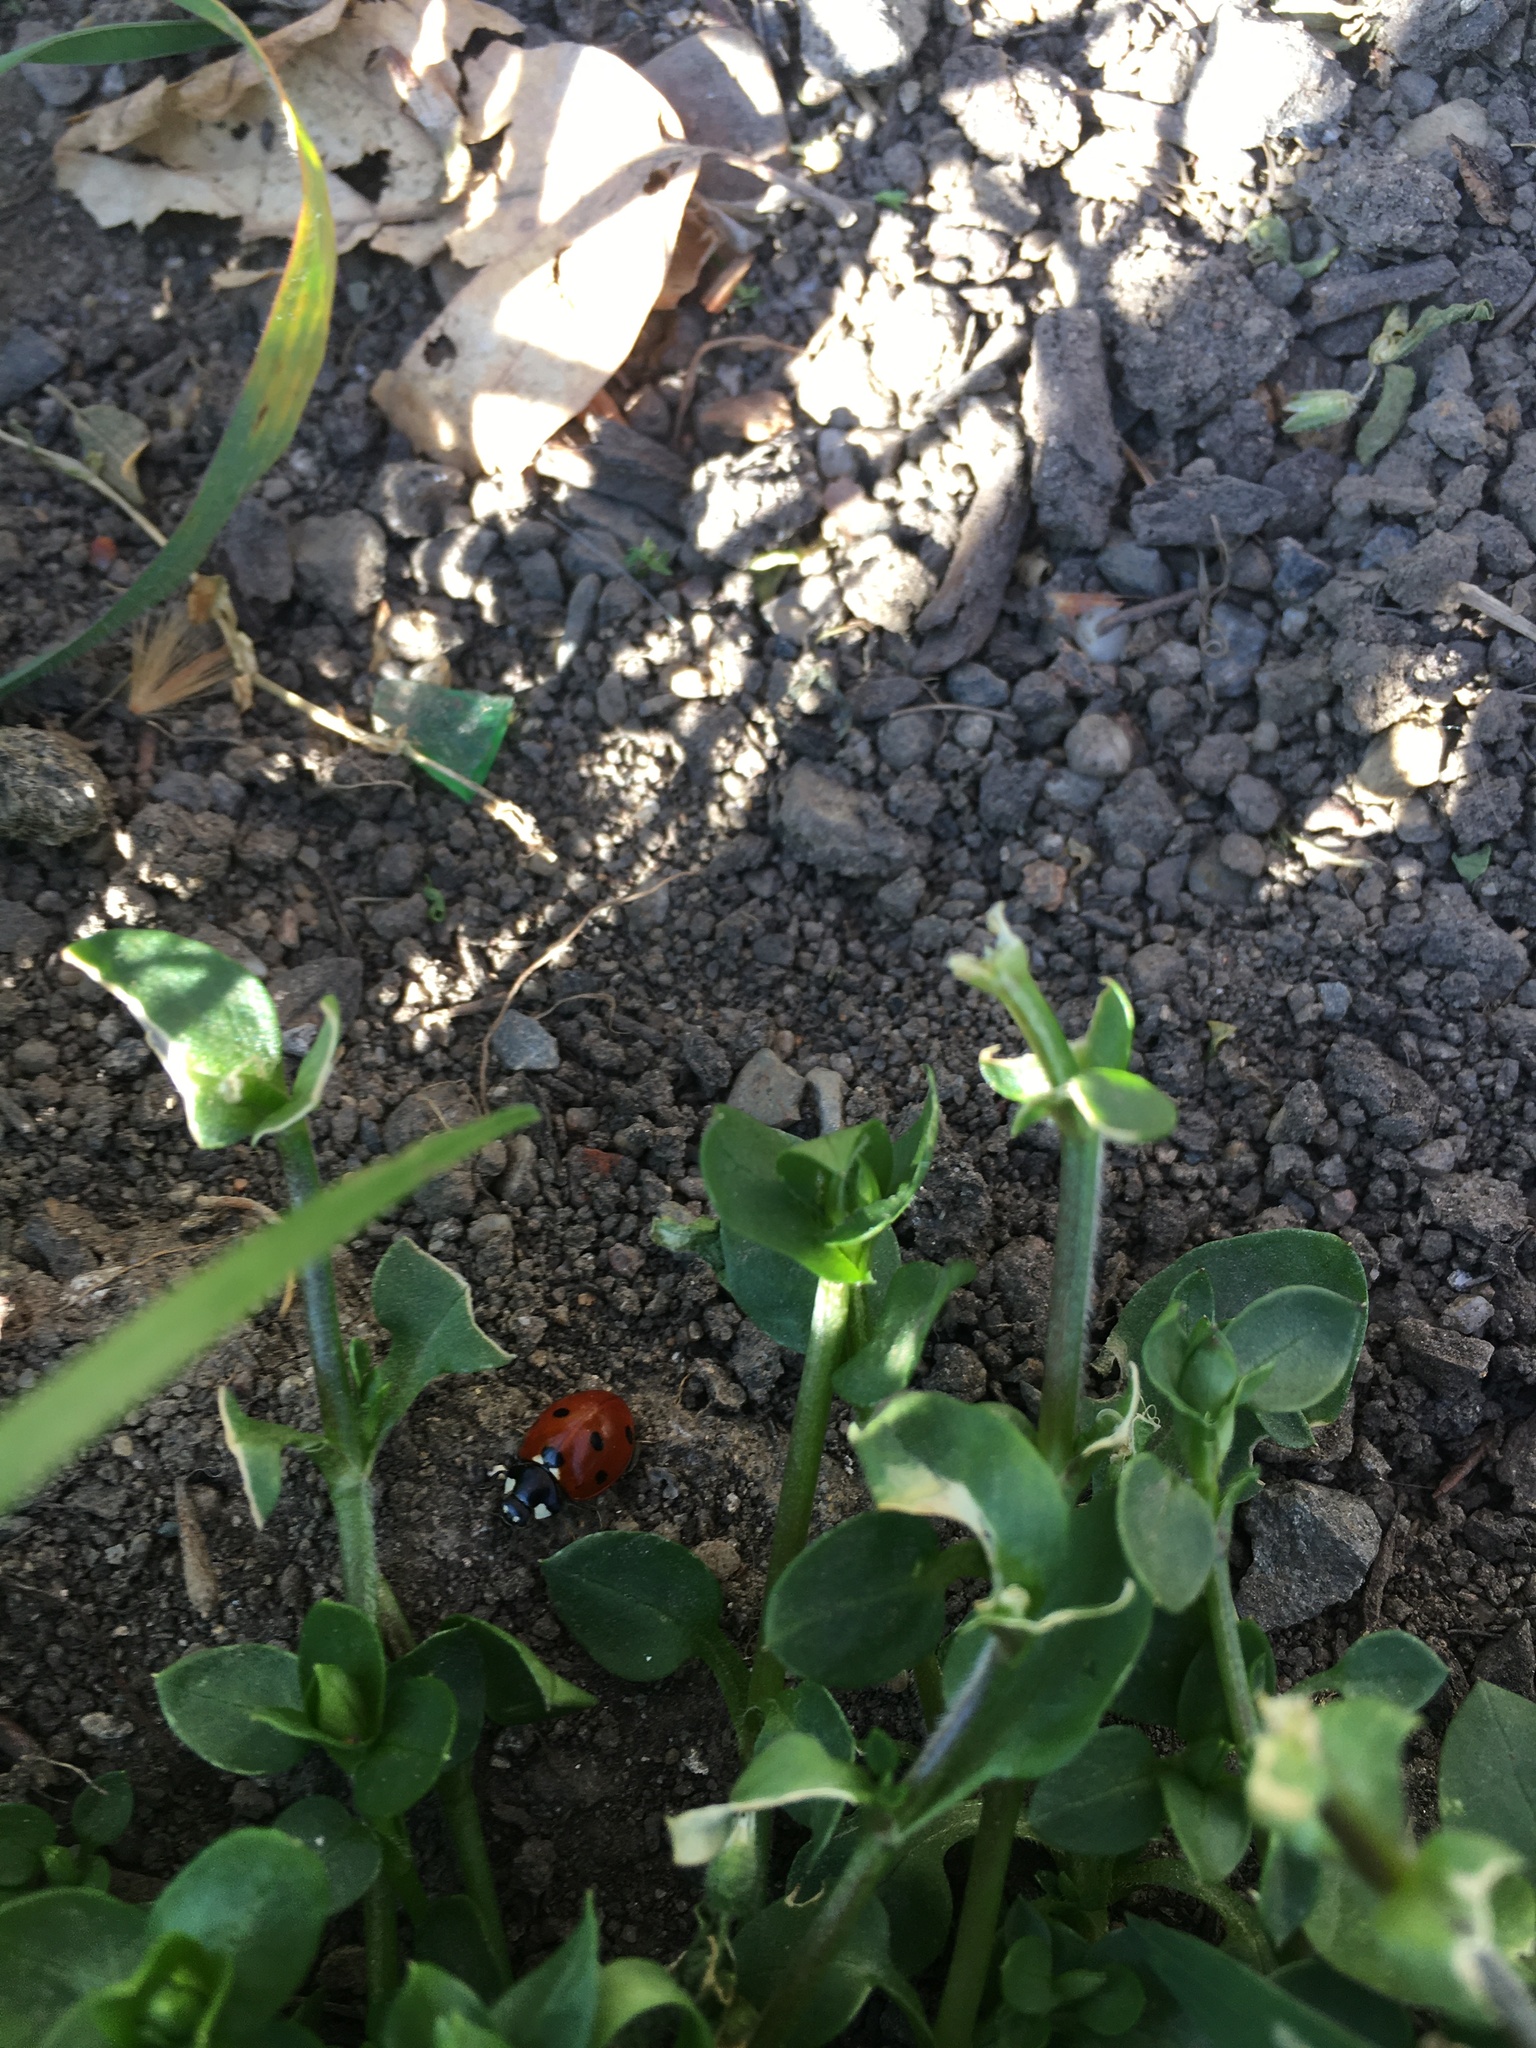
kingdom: Animalia
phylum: Arthropoda
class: Insecta
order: Coleoptera
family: Coccinellidae
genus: Coccinella
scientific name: Coccinella septempunctata
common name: Sevenspotted lady beetle
